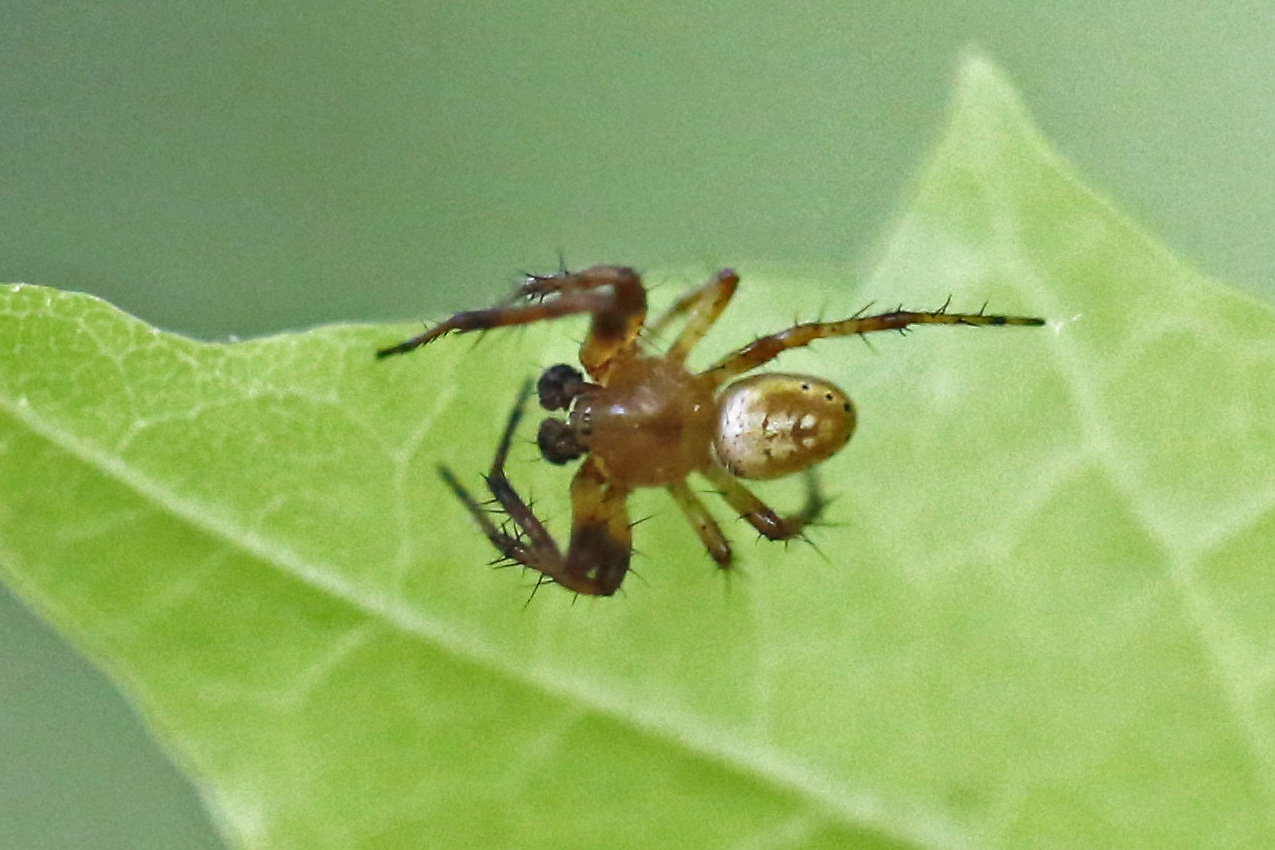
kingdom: Animalia
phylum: Arthropoda
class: Arachnida
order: Araneae
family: Araneidae
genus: Araniella
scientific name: Araniella displicata
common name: Sixspotted orb weaver
